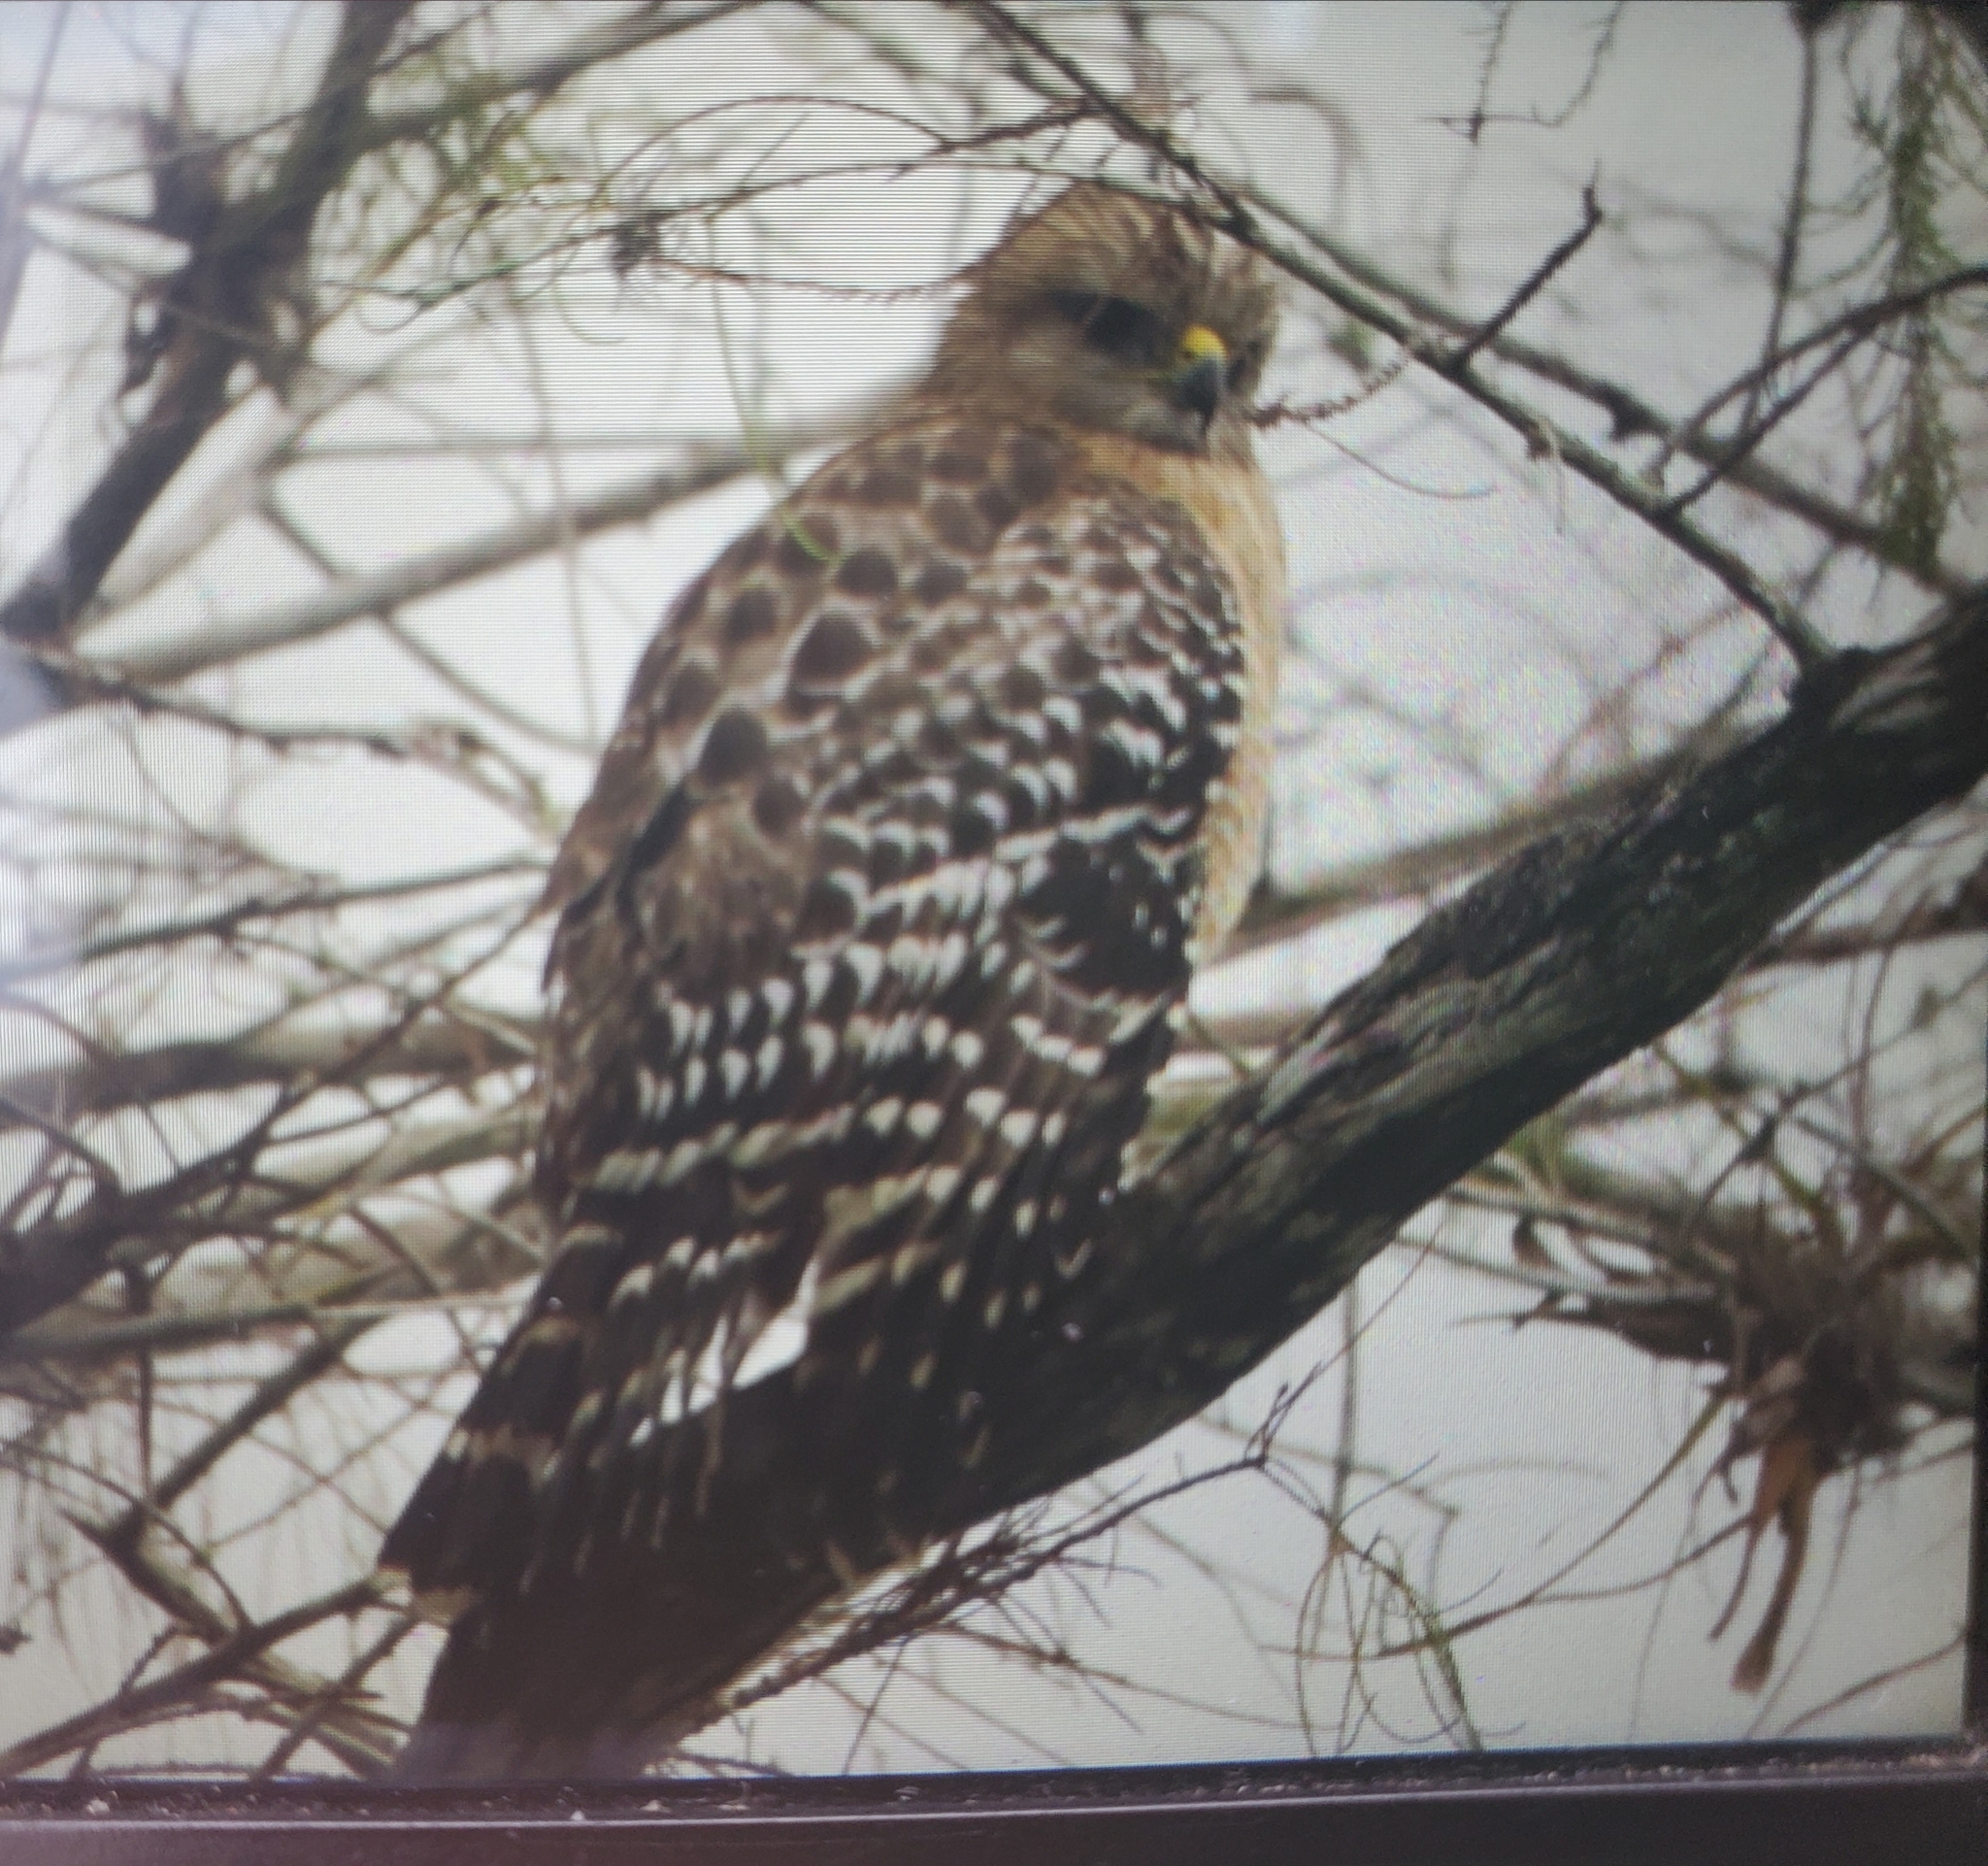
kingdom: Animalia
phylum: Chordata
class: Aves
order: Accipitriformes
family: Accipitridae
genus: Buteo
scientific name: Buteo lineatus
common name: Red-shouldered hawk
